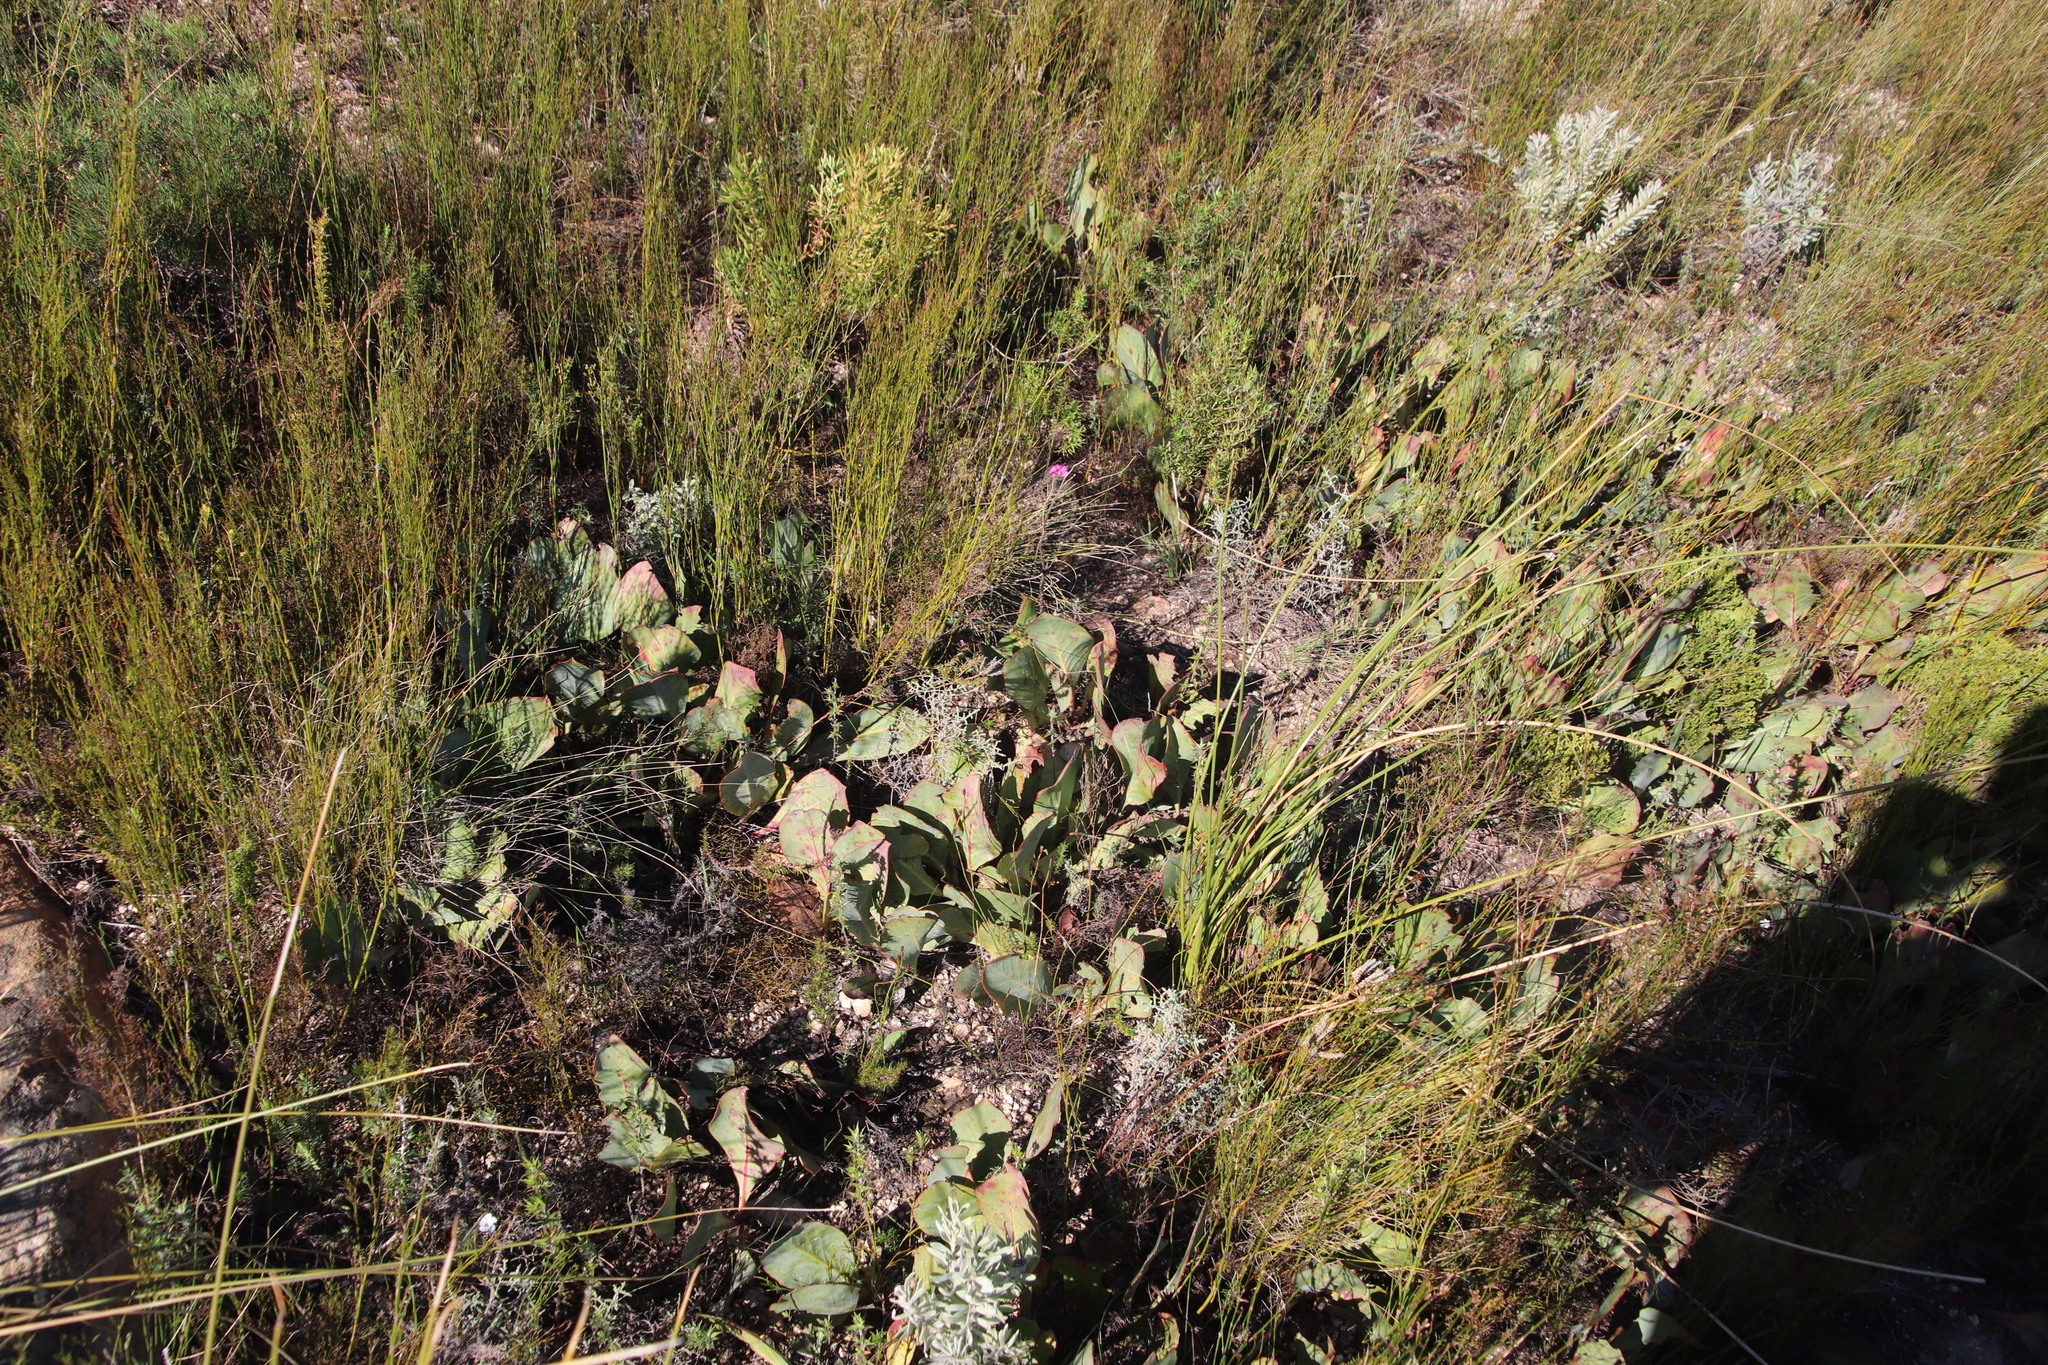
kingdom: Plantae
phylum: Tracheophyta
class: Magnoliopsida
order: Proteales
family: Proteaceae
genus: Protea
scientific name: Protea acaulos
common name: Common ground sugarbush
